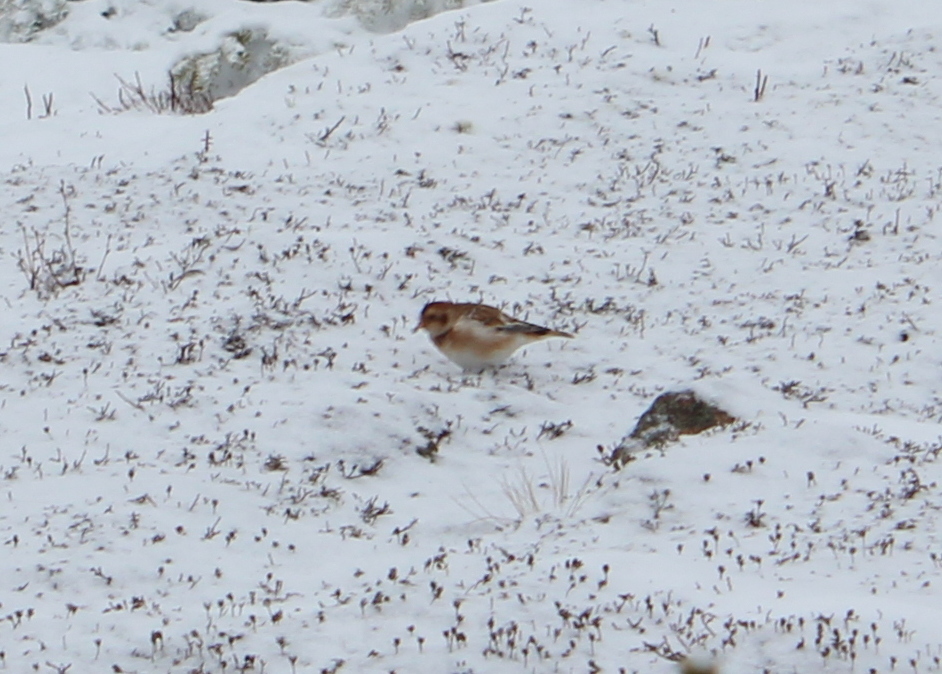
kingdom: Animalia
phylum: Chordata
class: Aves
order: Passeriformes
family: Calcariidae
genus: Plectrophenax
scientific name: Plectrophenax nivalis
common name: Snow bunting
